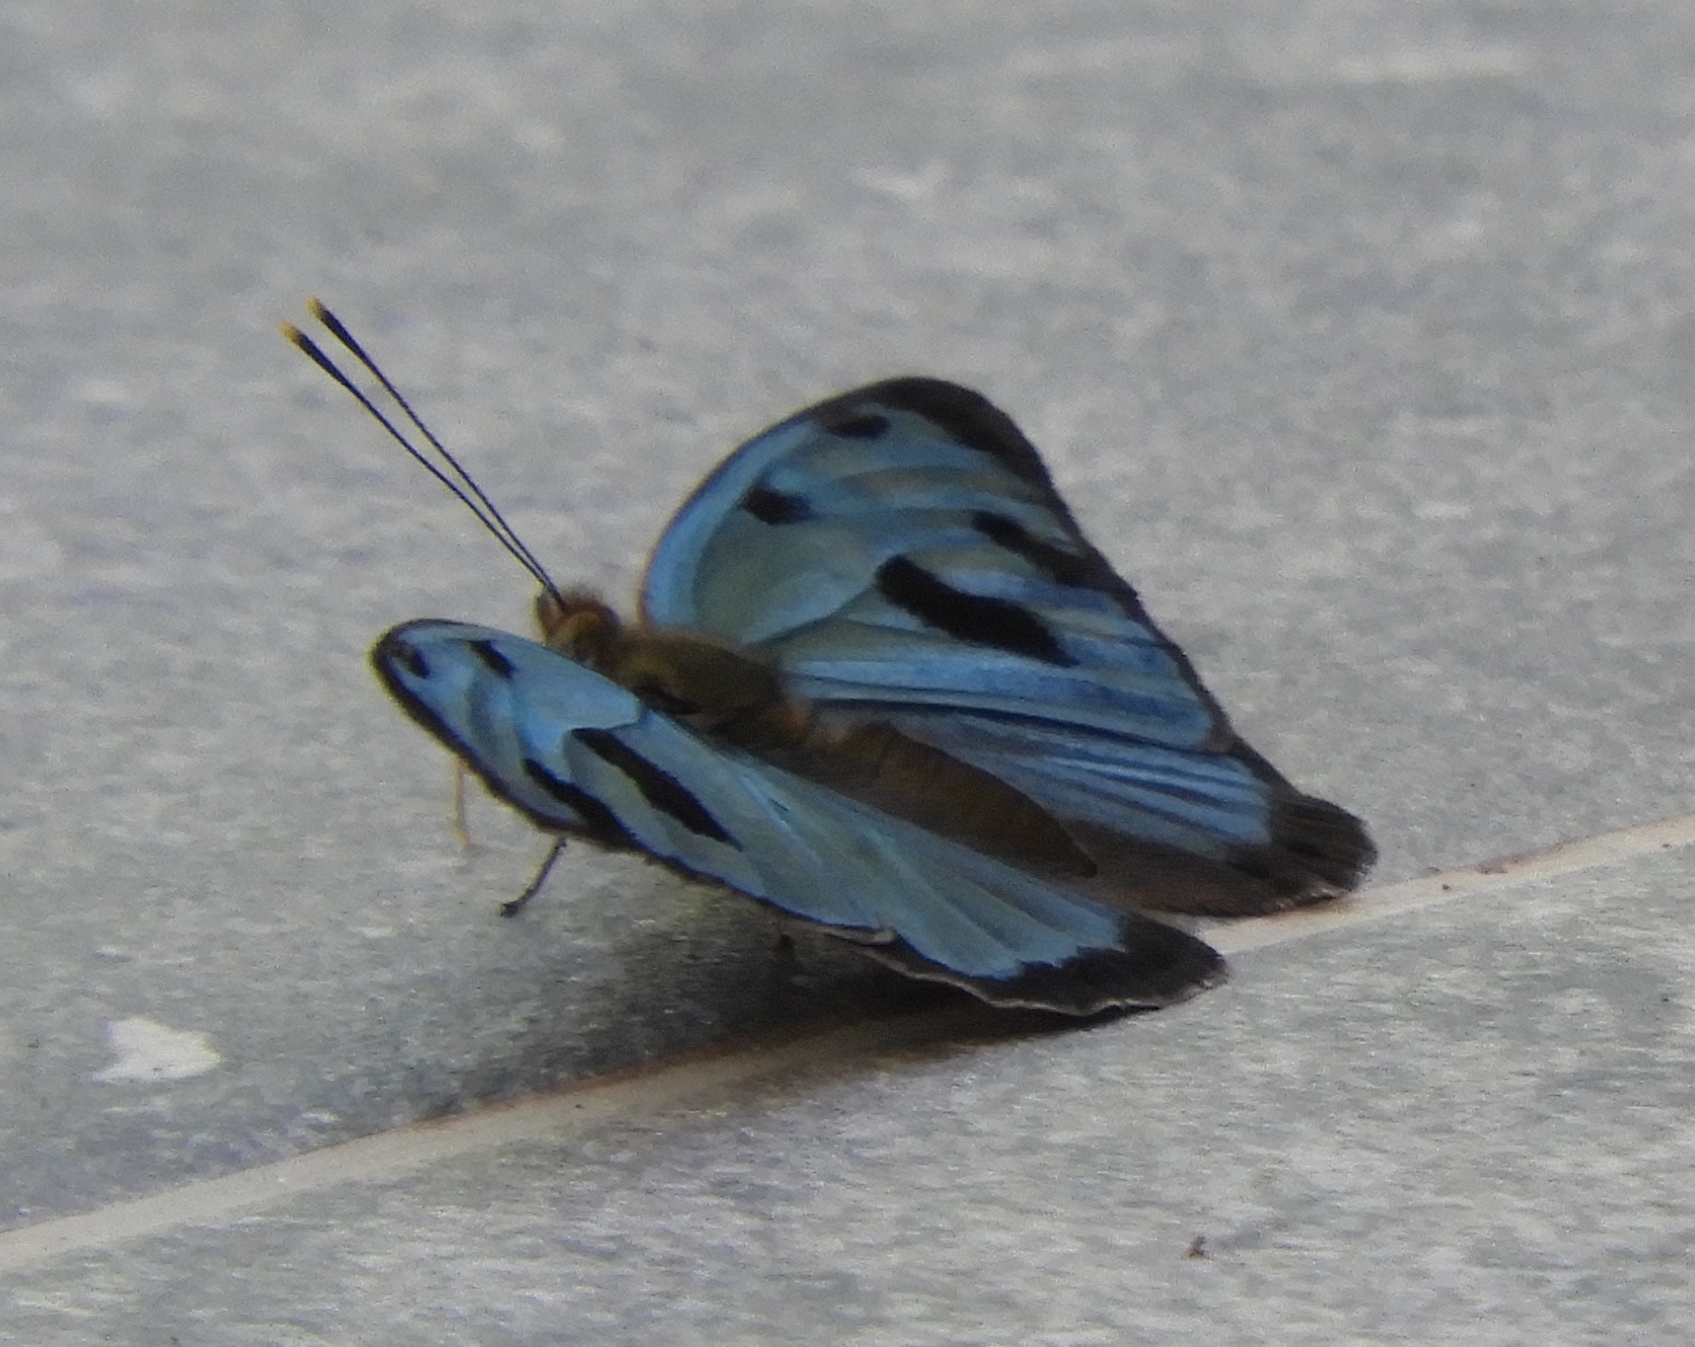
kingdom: Animalia
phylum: Arthropoda
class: Insecta
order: Lepidoptera
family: Nymphalidae
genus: Dynamine
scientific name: Dynamine mylitta
